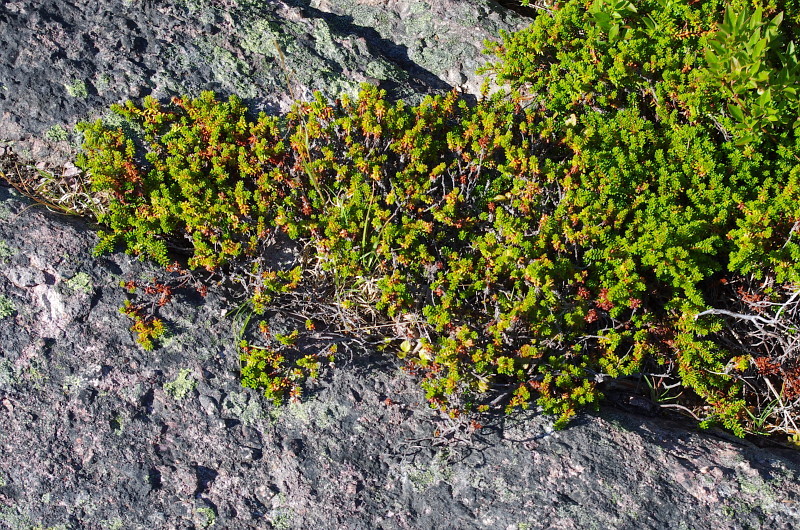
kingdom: Plantae
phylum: Tracheophyta
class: Magnoliopsida
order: Ericales
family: Ericaceae
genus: Empetrum
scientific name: Empetrum nigrum
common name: Black crowberry
